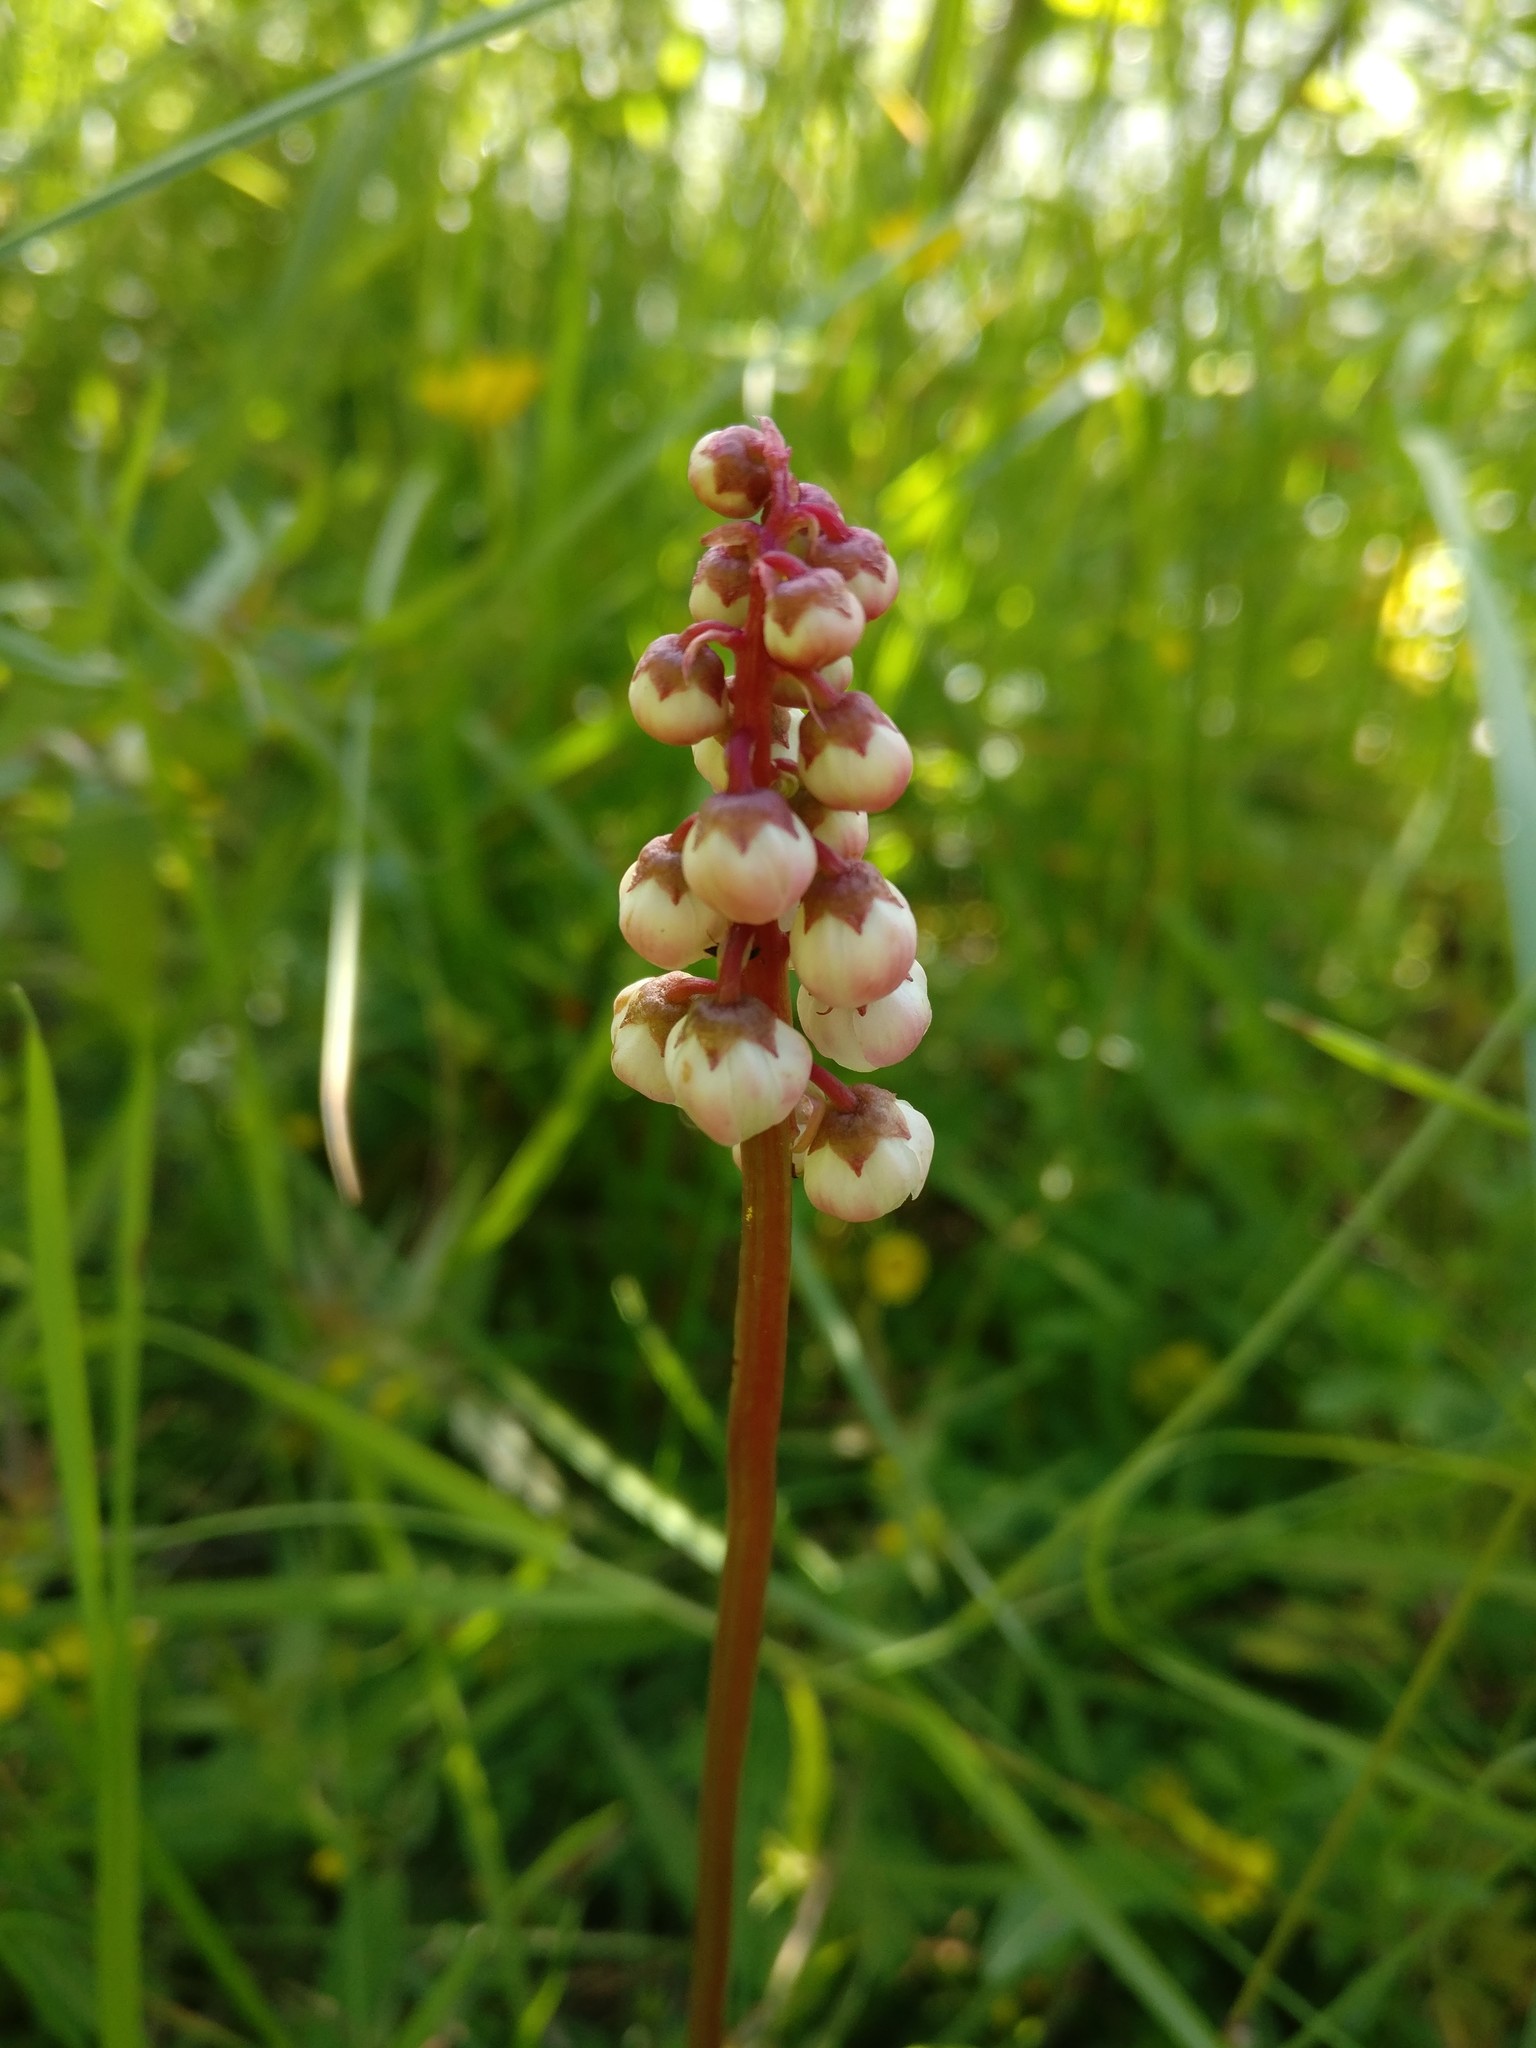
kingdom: Plantae
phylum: Tracheophyta
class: Magnoliopsida
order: Ericales
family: Ericaceae
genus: Pyrola
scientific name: Pyrola minor
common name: Common wintergreen
